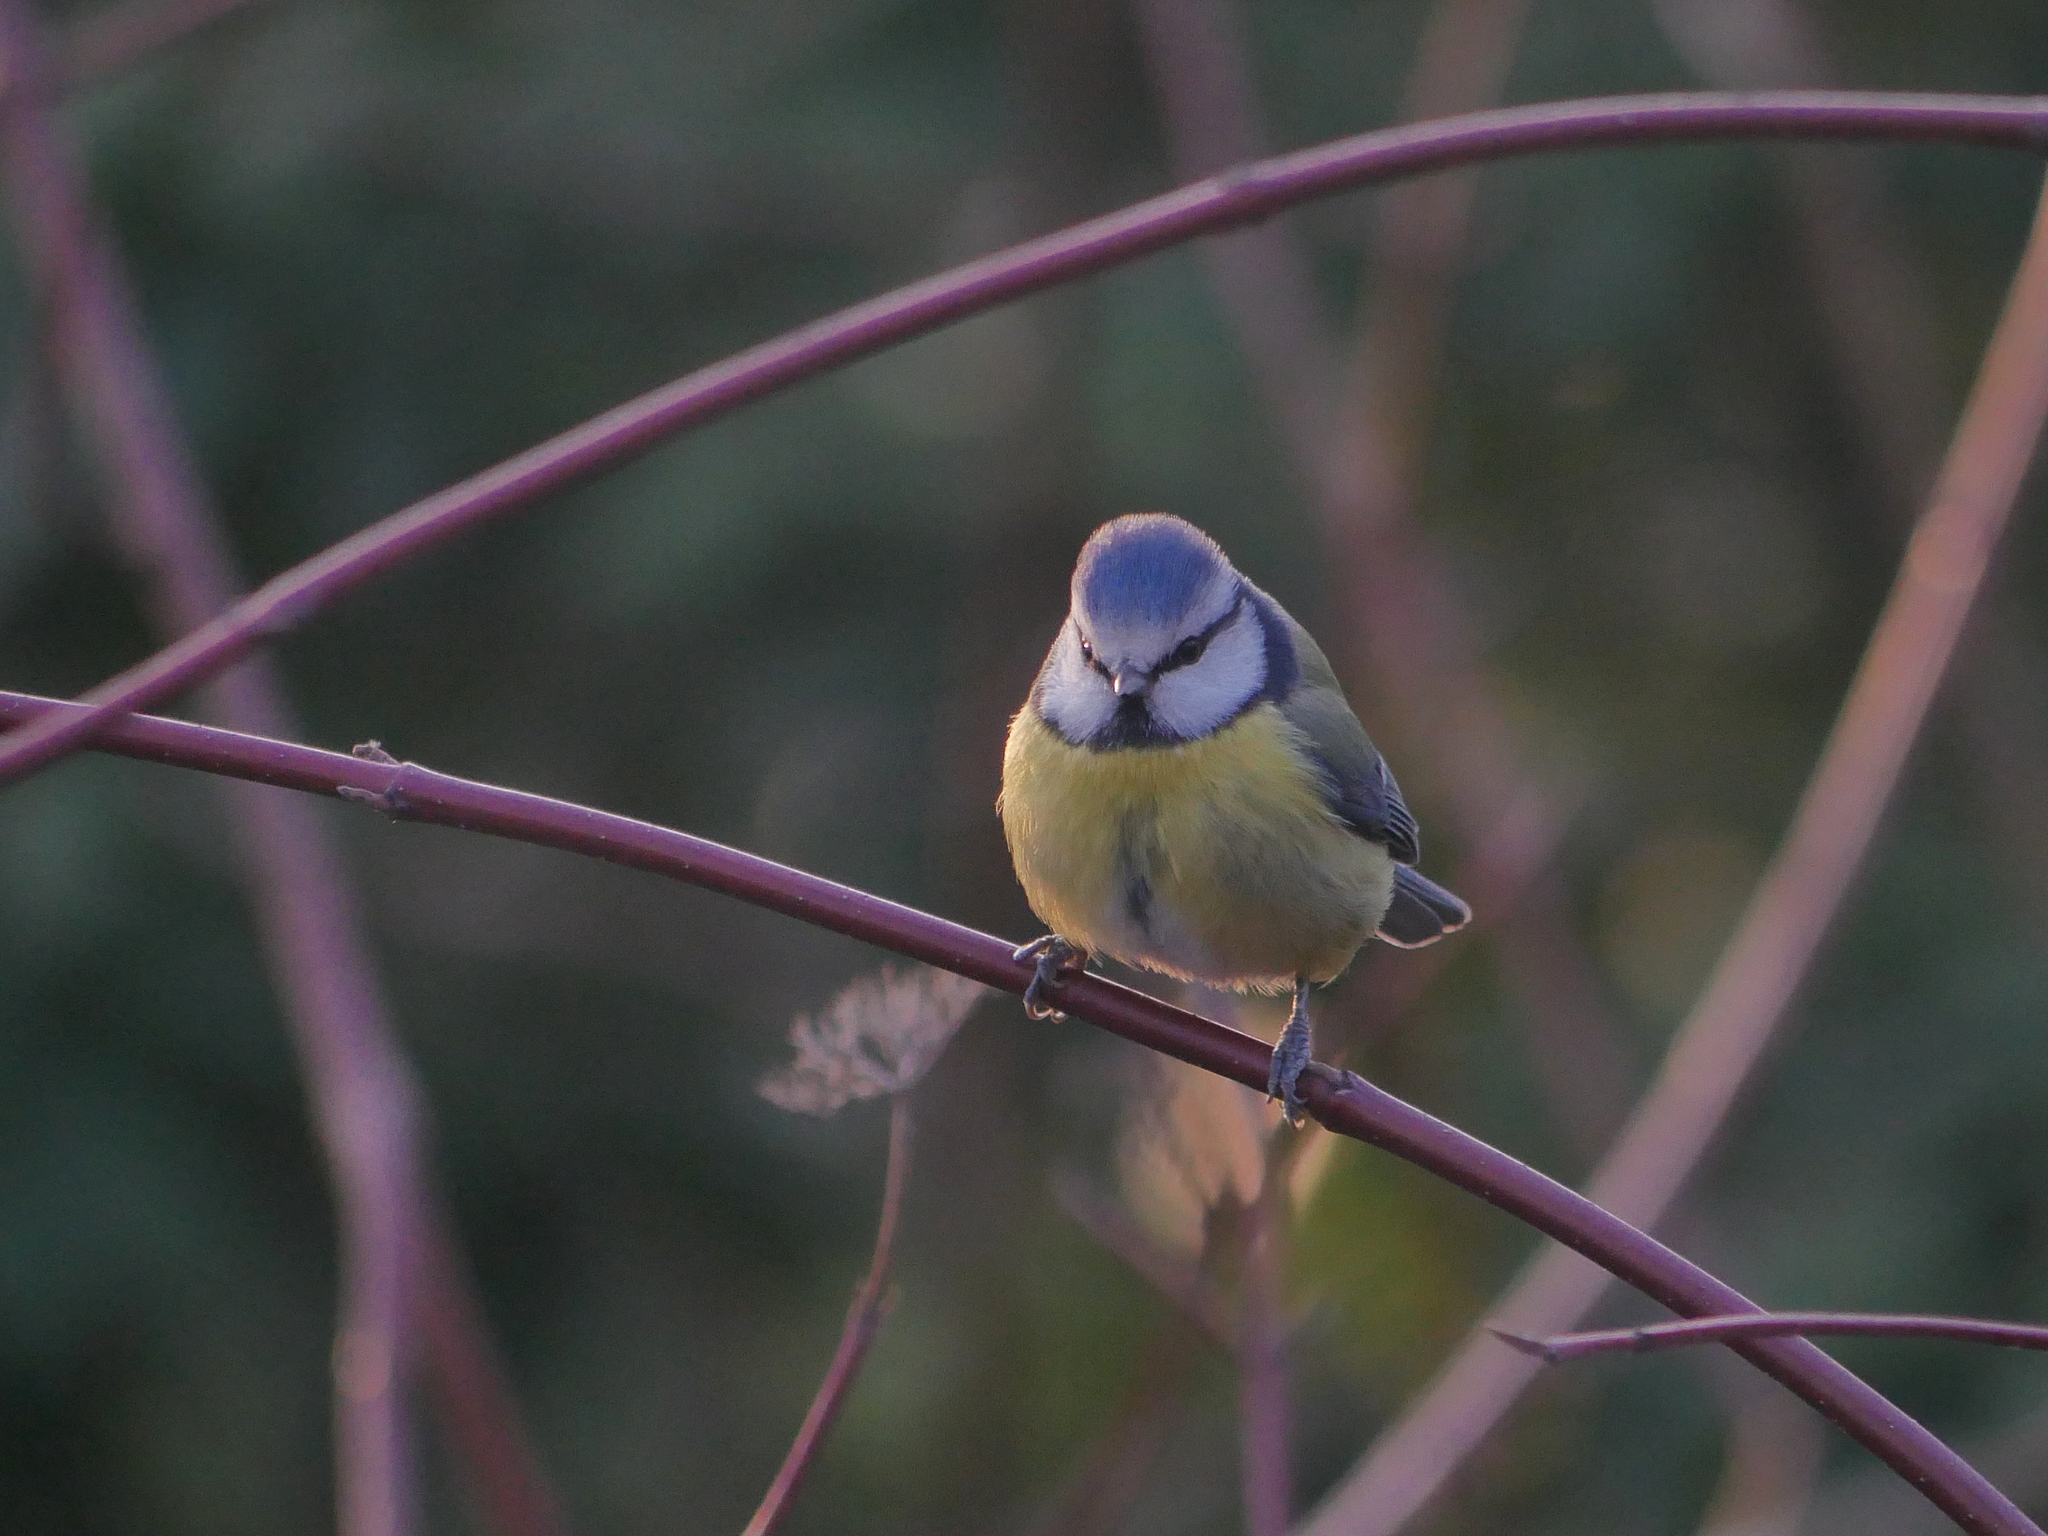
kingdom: Animalia
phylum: Chordata
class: Aves
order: Passeriformes
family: Paridae
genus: Cyanistes
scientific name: Cyanistes caeruleus
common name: Eurasian blue tit
